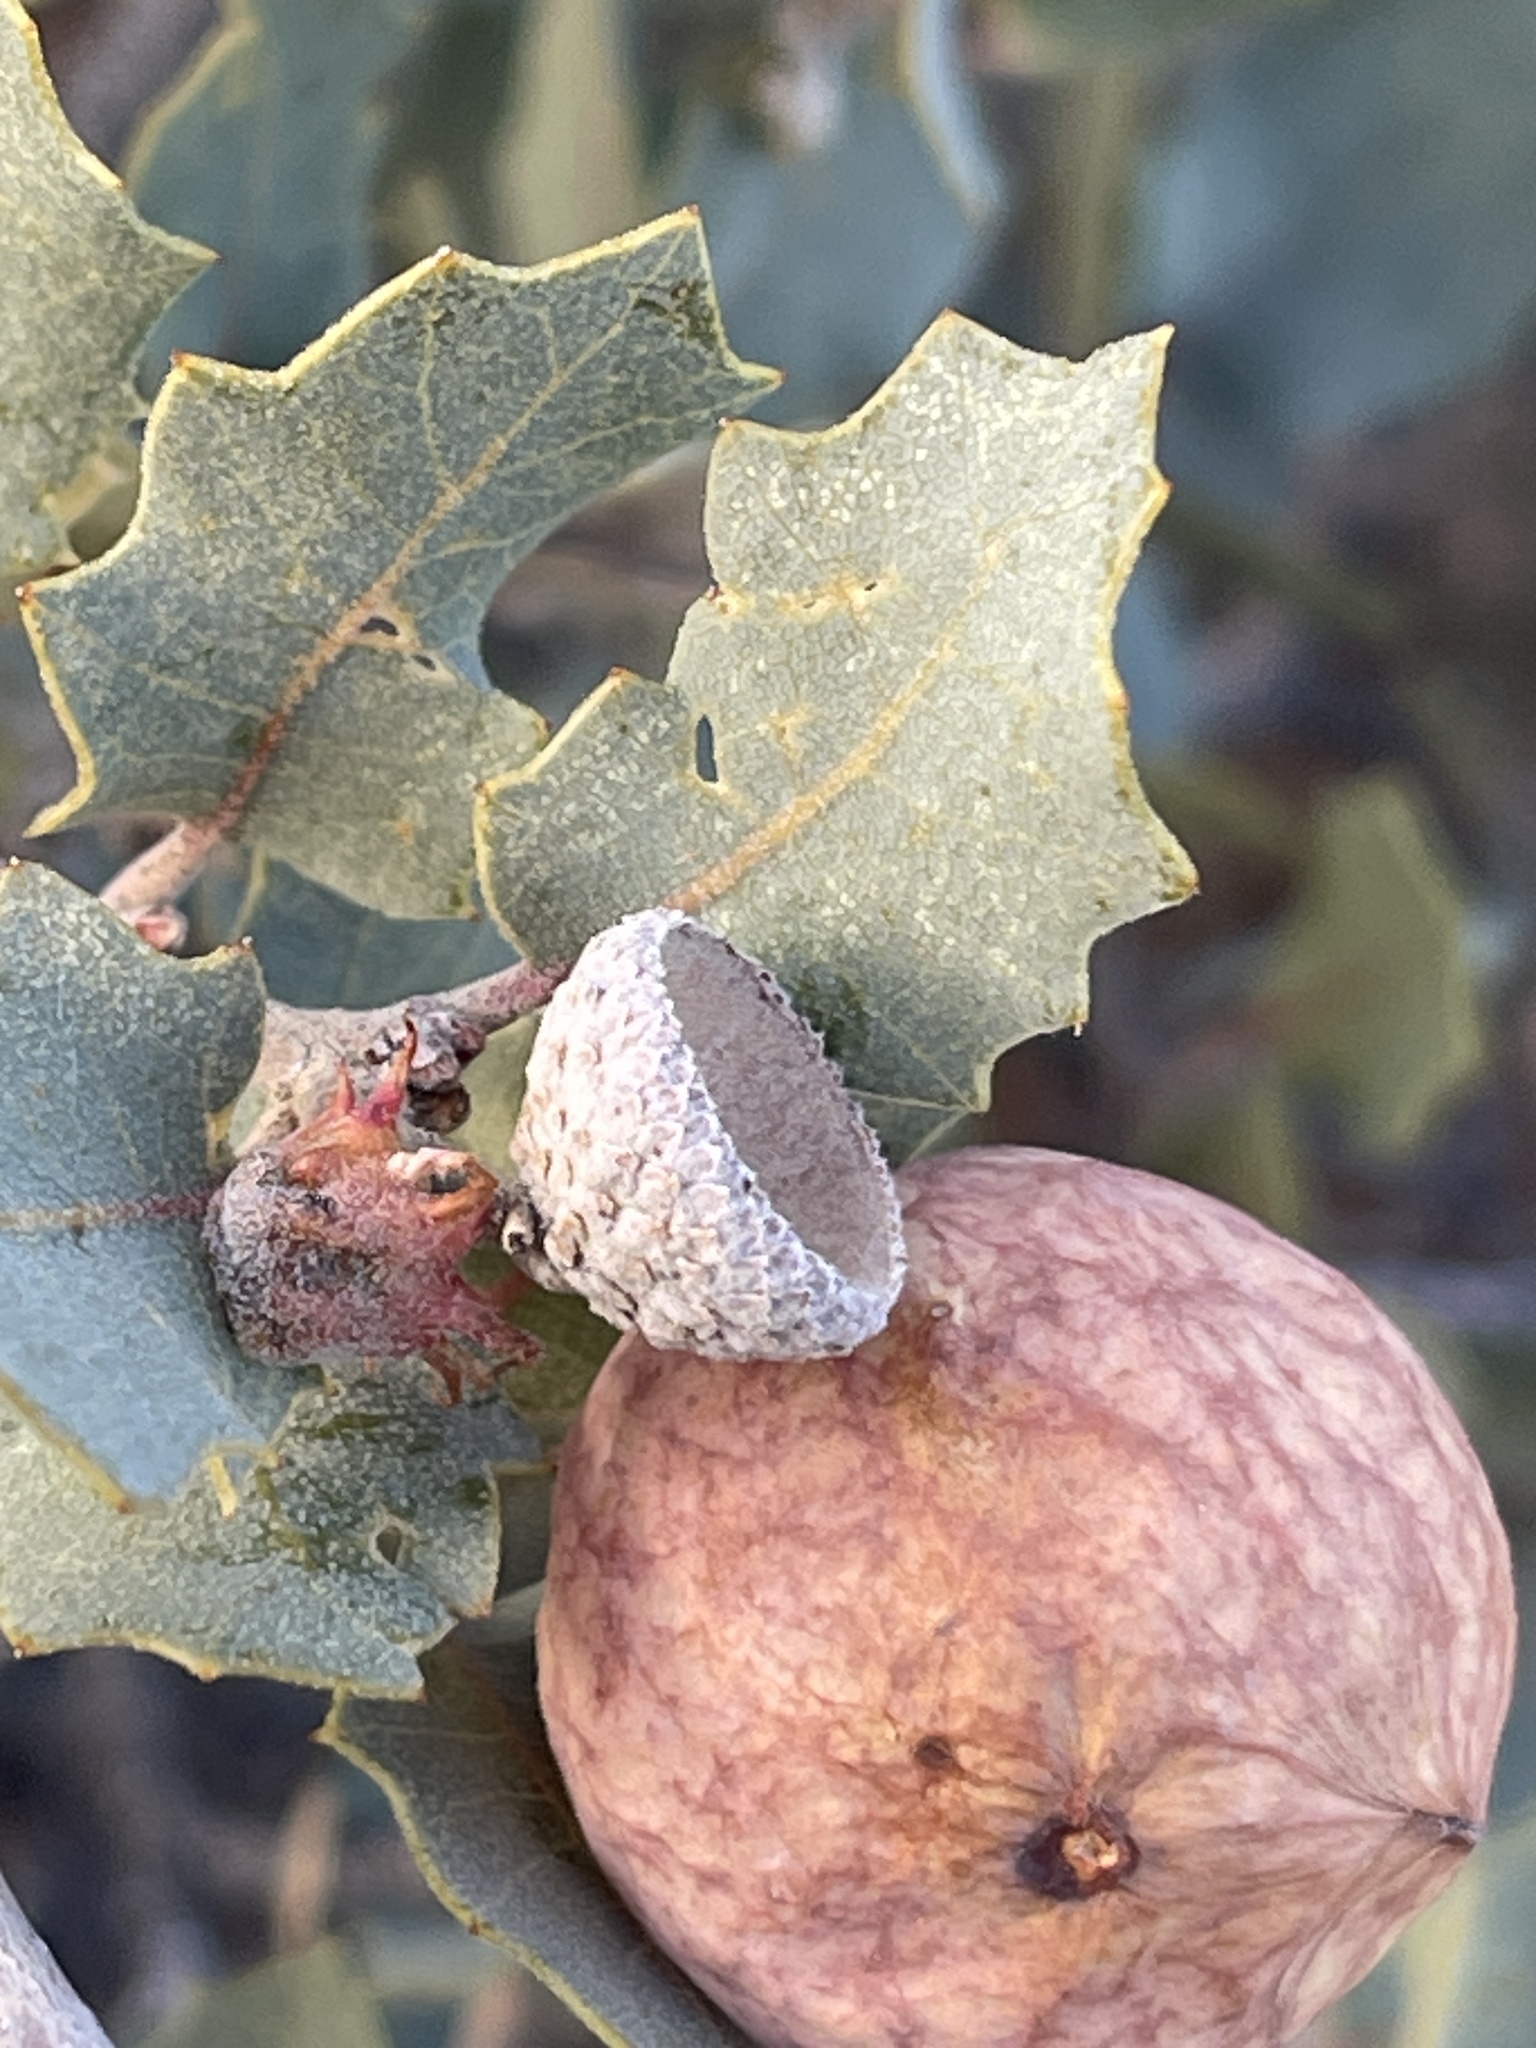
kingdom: Plantae
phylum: Tracheophyta
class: Magnoliopsida
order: Fagales
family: Fagaceae
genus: Quercus
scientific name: Quercus turbinella
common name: Sonoran scrub oak
